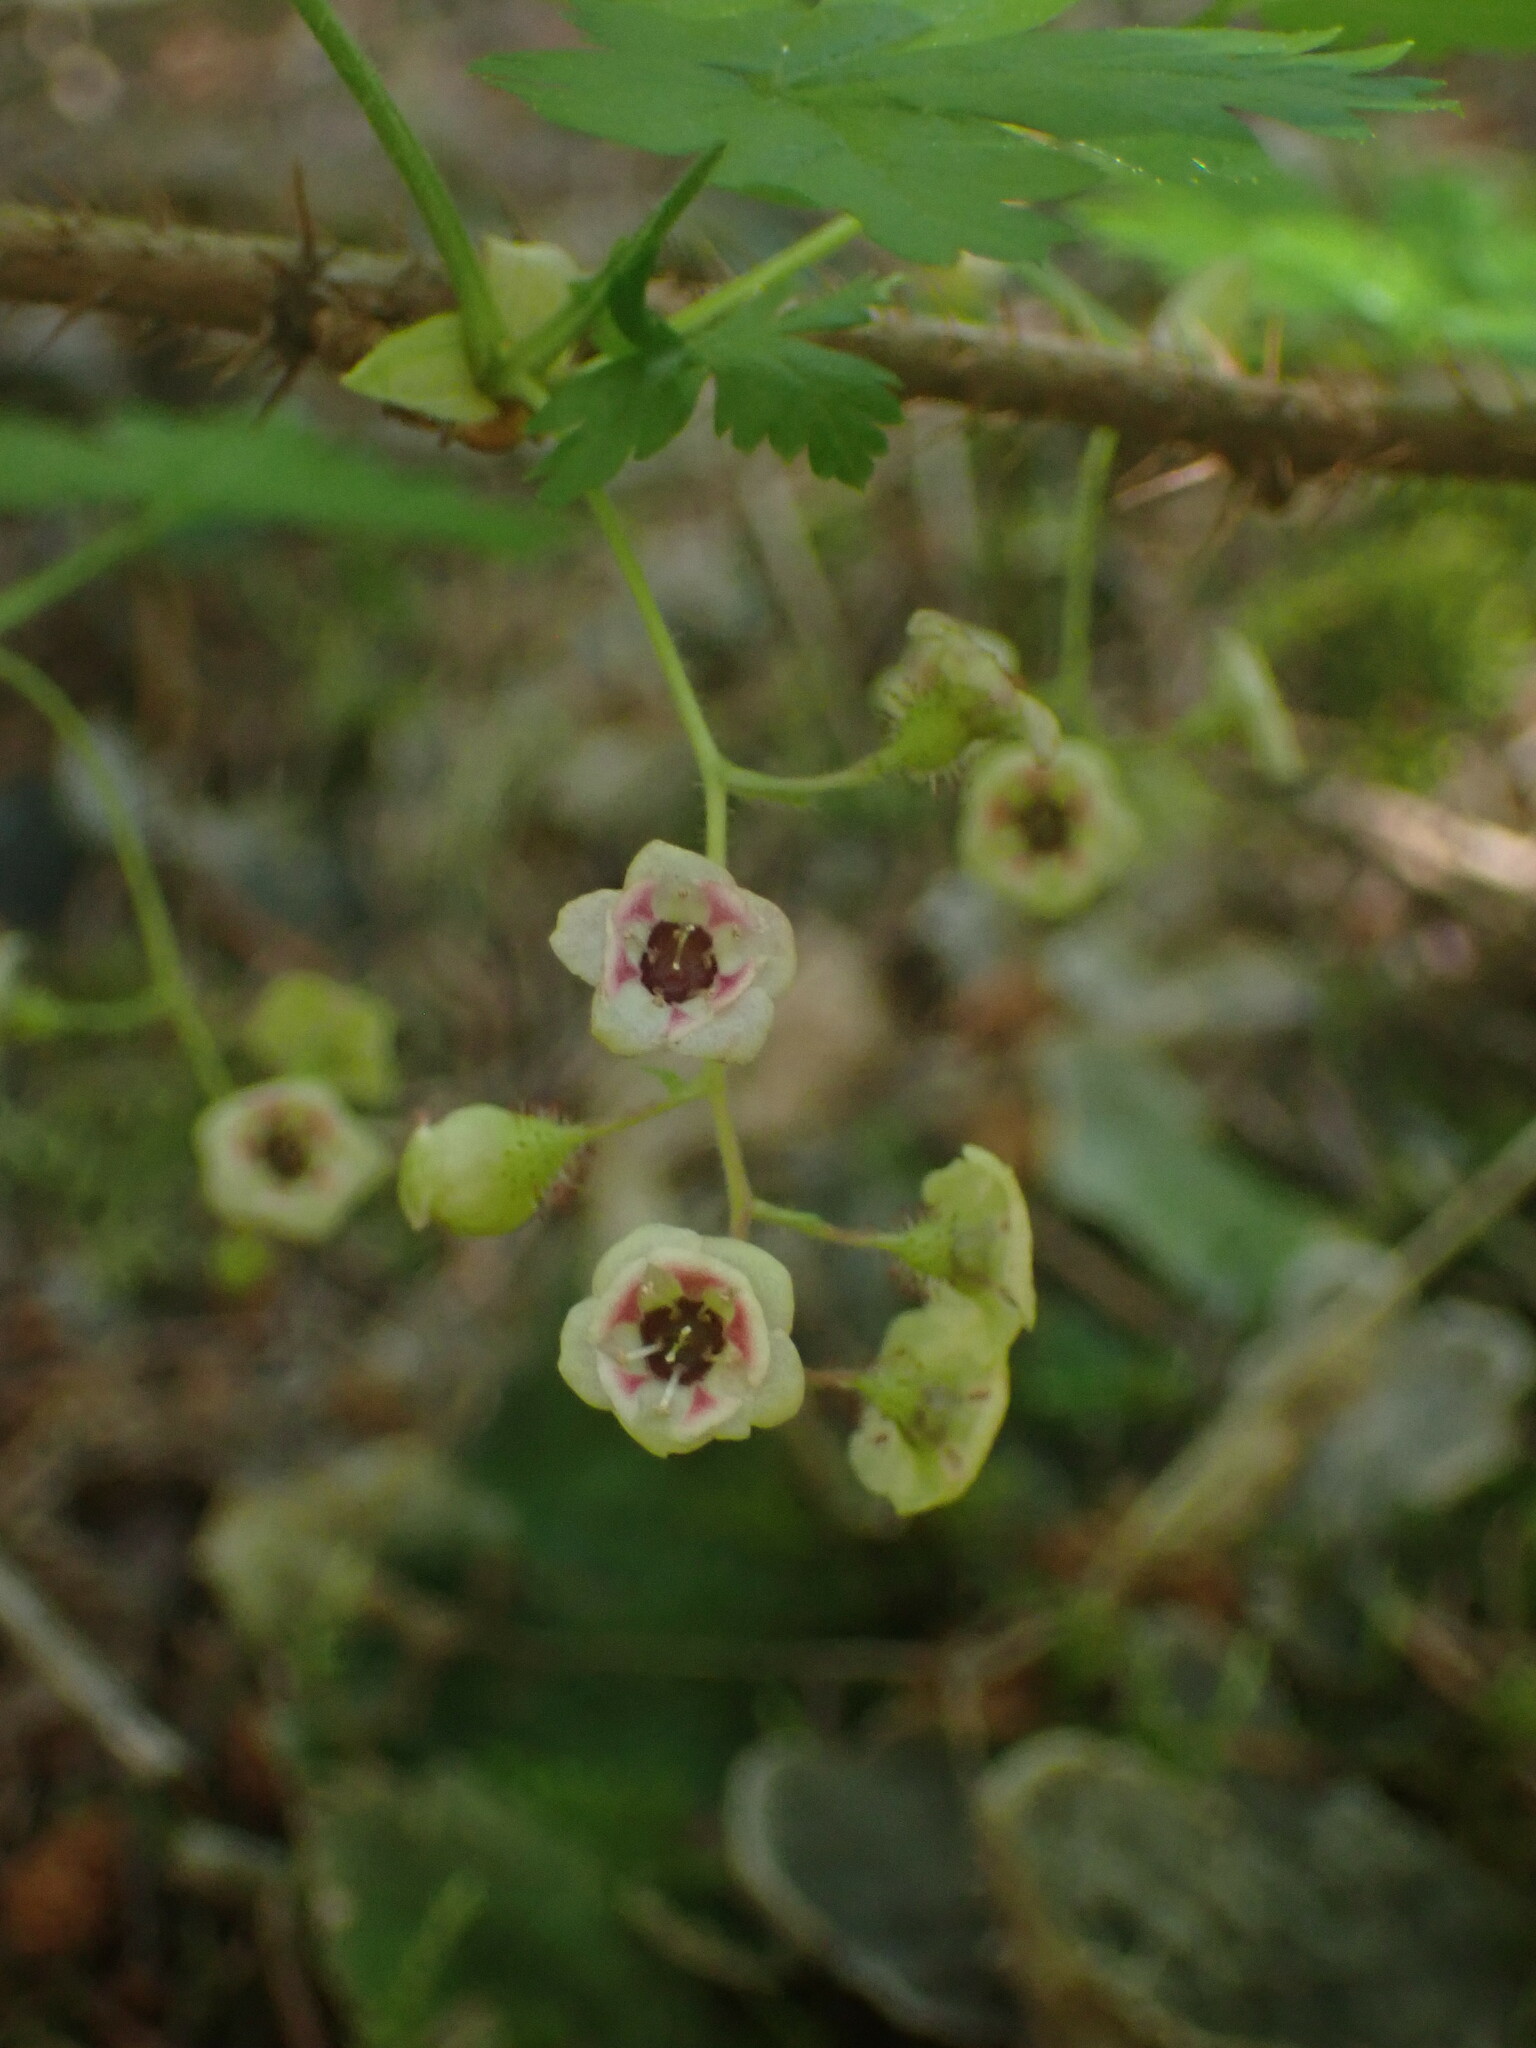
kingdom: Plantae
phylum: Tracheophyta
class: Magnoliopsida
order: Saxifragales
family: Grossulariaceae
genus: Ribes
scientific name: Ribes lacustre
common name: Black gooseberry
